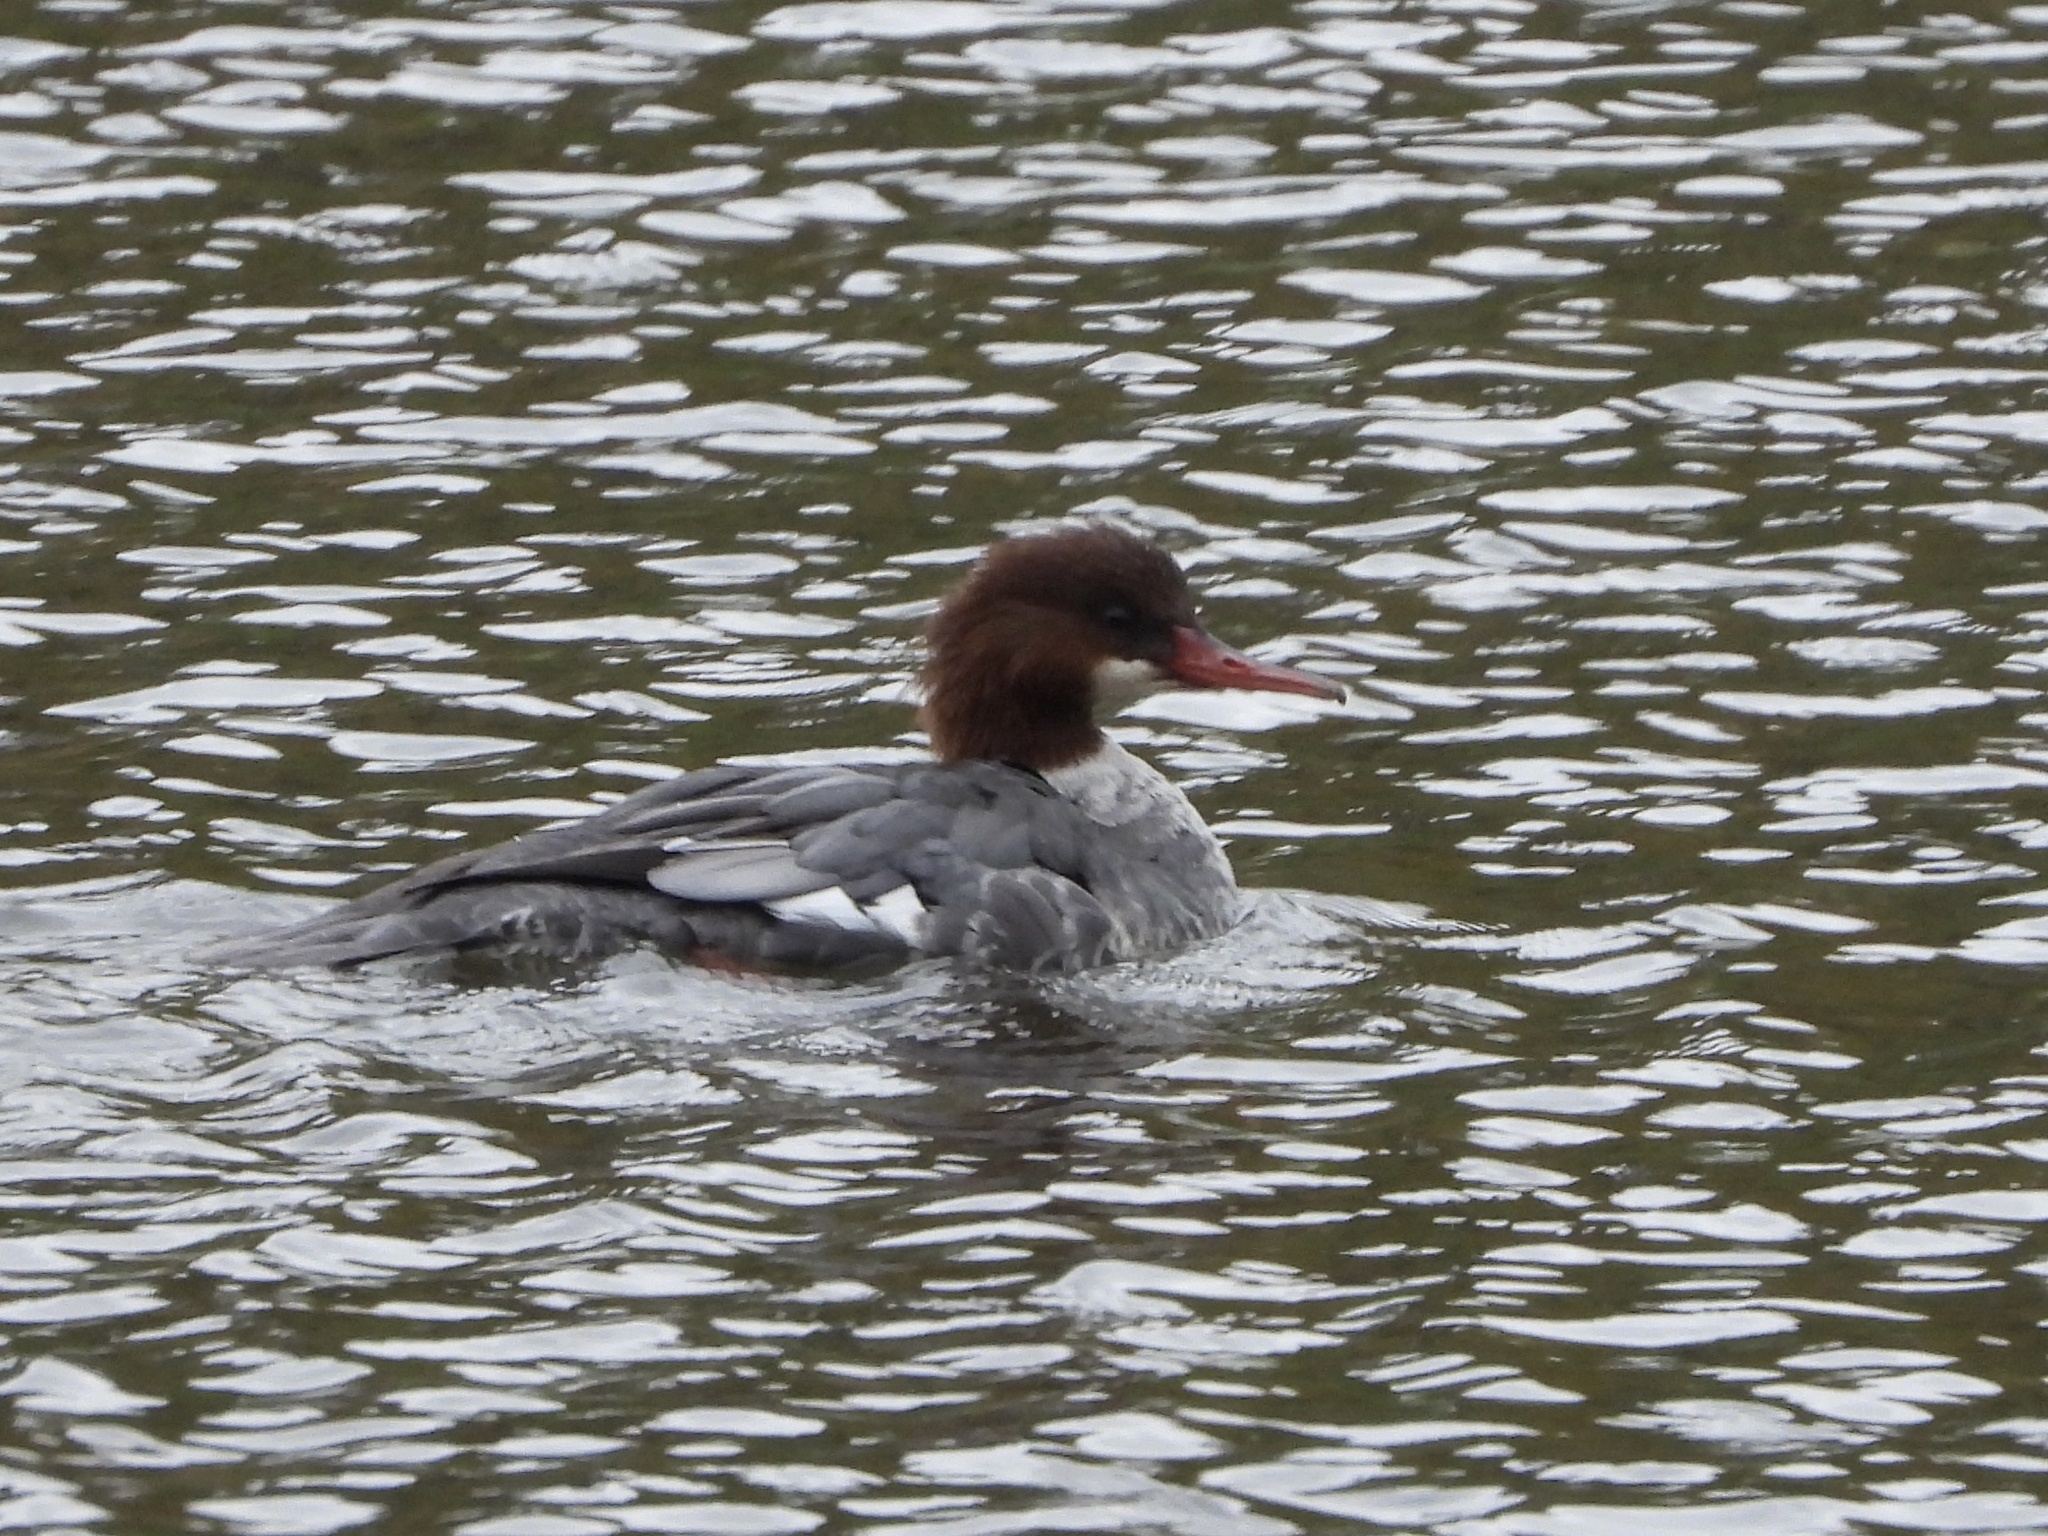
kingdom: Animalia
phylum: Chordata
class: Aves
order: Anseriformes
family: Anatidae
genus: Mergus
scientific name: Mergus merganser
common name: Common merganser
